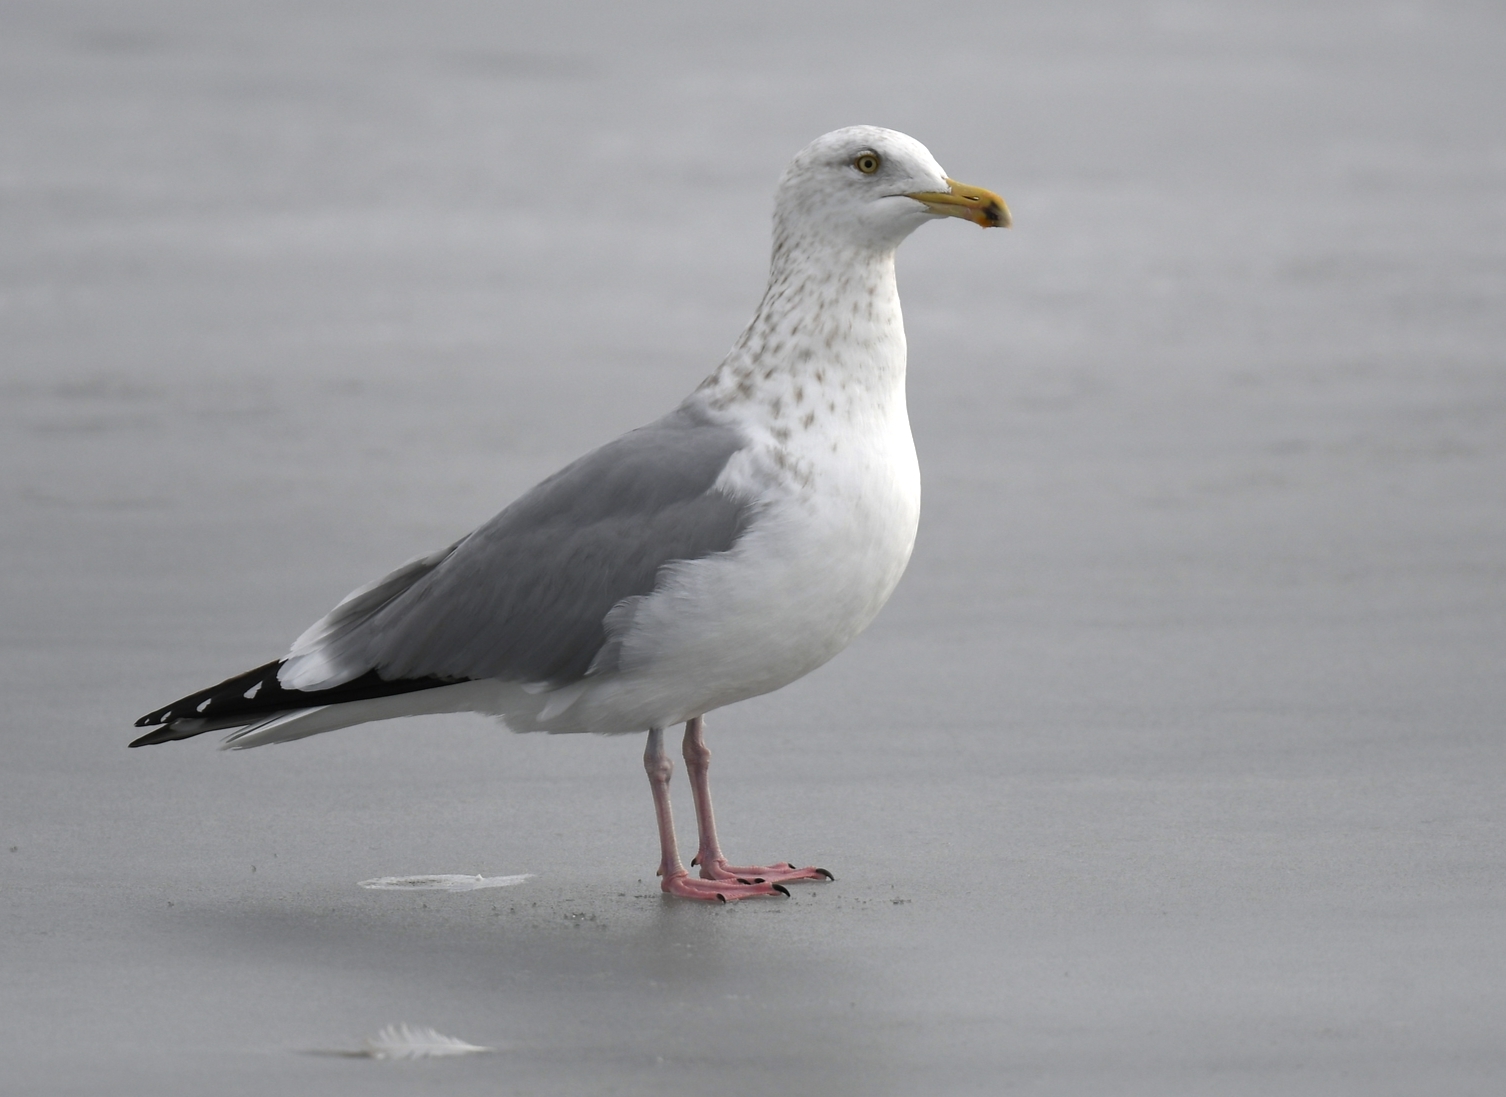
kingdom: Animalia
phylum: Chordata
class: Aves
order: Charadriiformes
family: Laridae
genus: Larus
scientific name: Larus argentatus
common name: Herring gull
